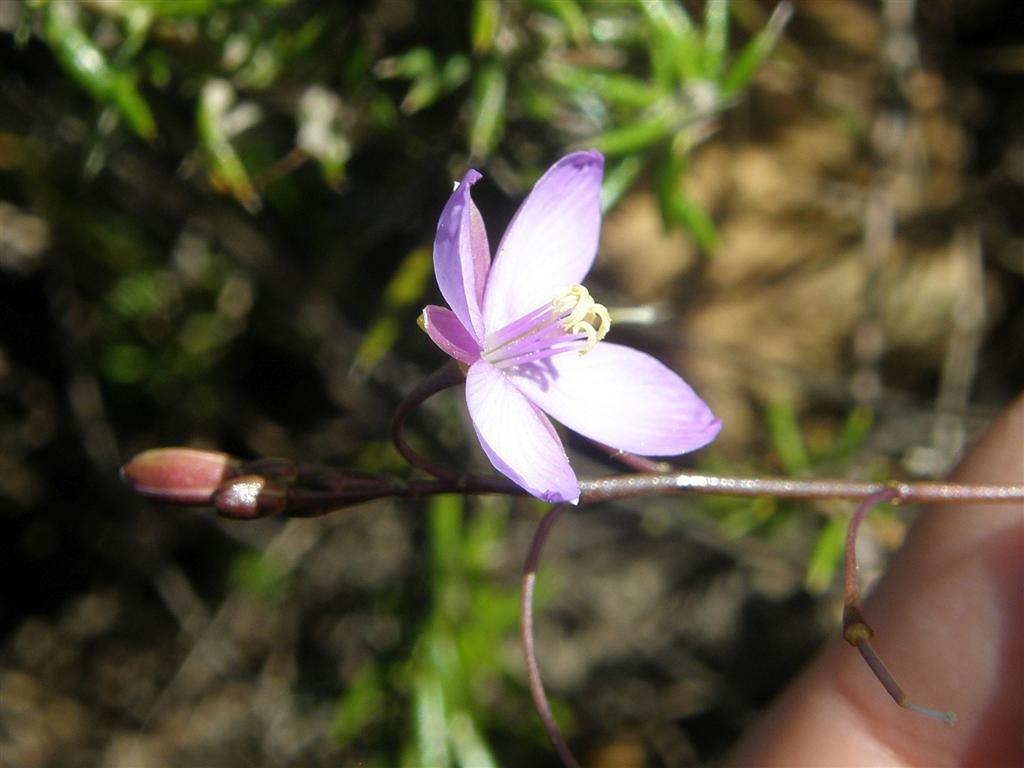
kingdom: Plantae
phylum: Tracheophyta
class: Magnoliopsida
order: Brassicales
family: Brassicaceae
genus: Heliophila
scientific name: Heliophila subulata
